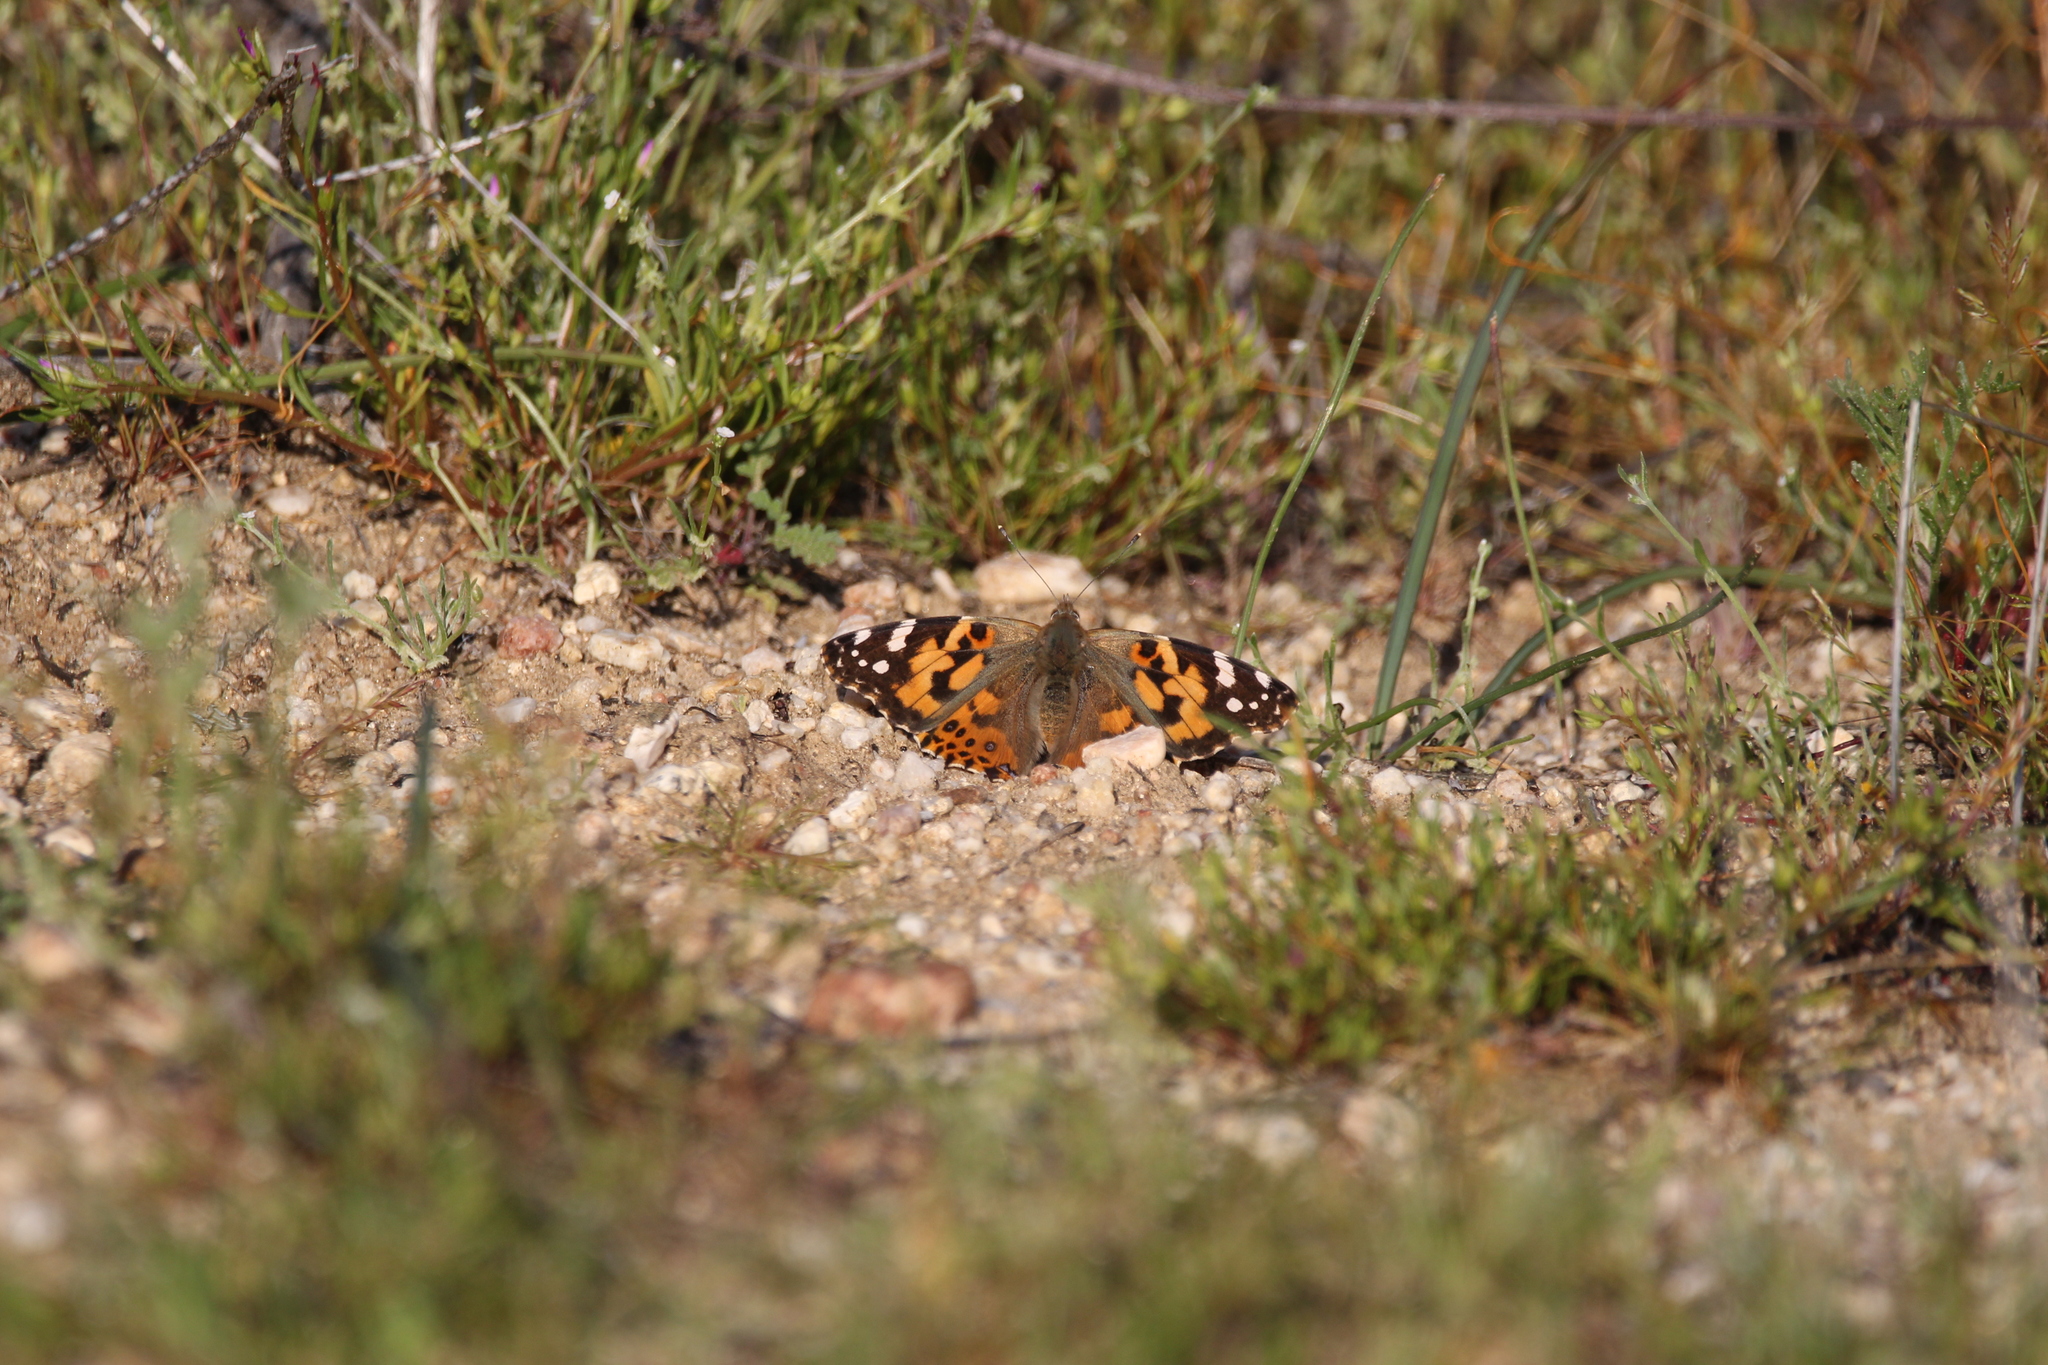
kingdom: Animalia
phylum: Arthropoda
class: Insecta
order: Lepidoptera
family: Nymphalidae
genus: Vanessa
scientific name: Vanessa cardui
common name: Painted lady
